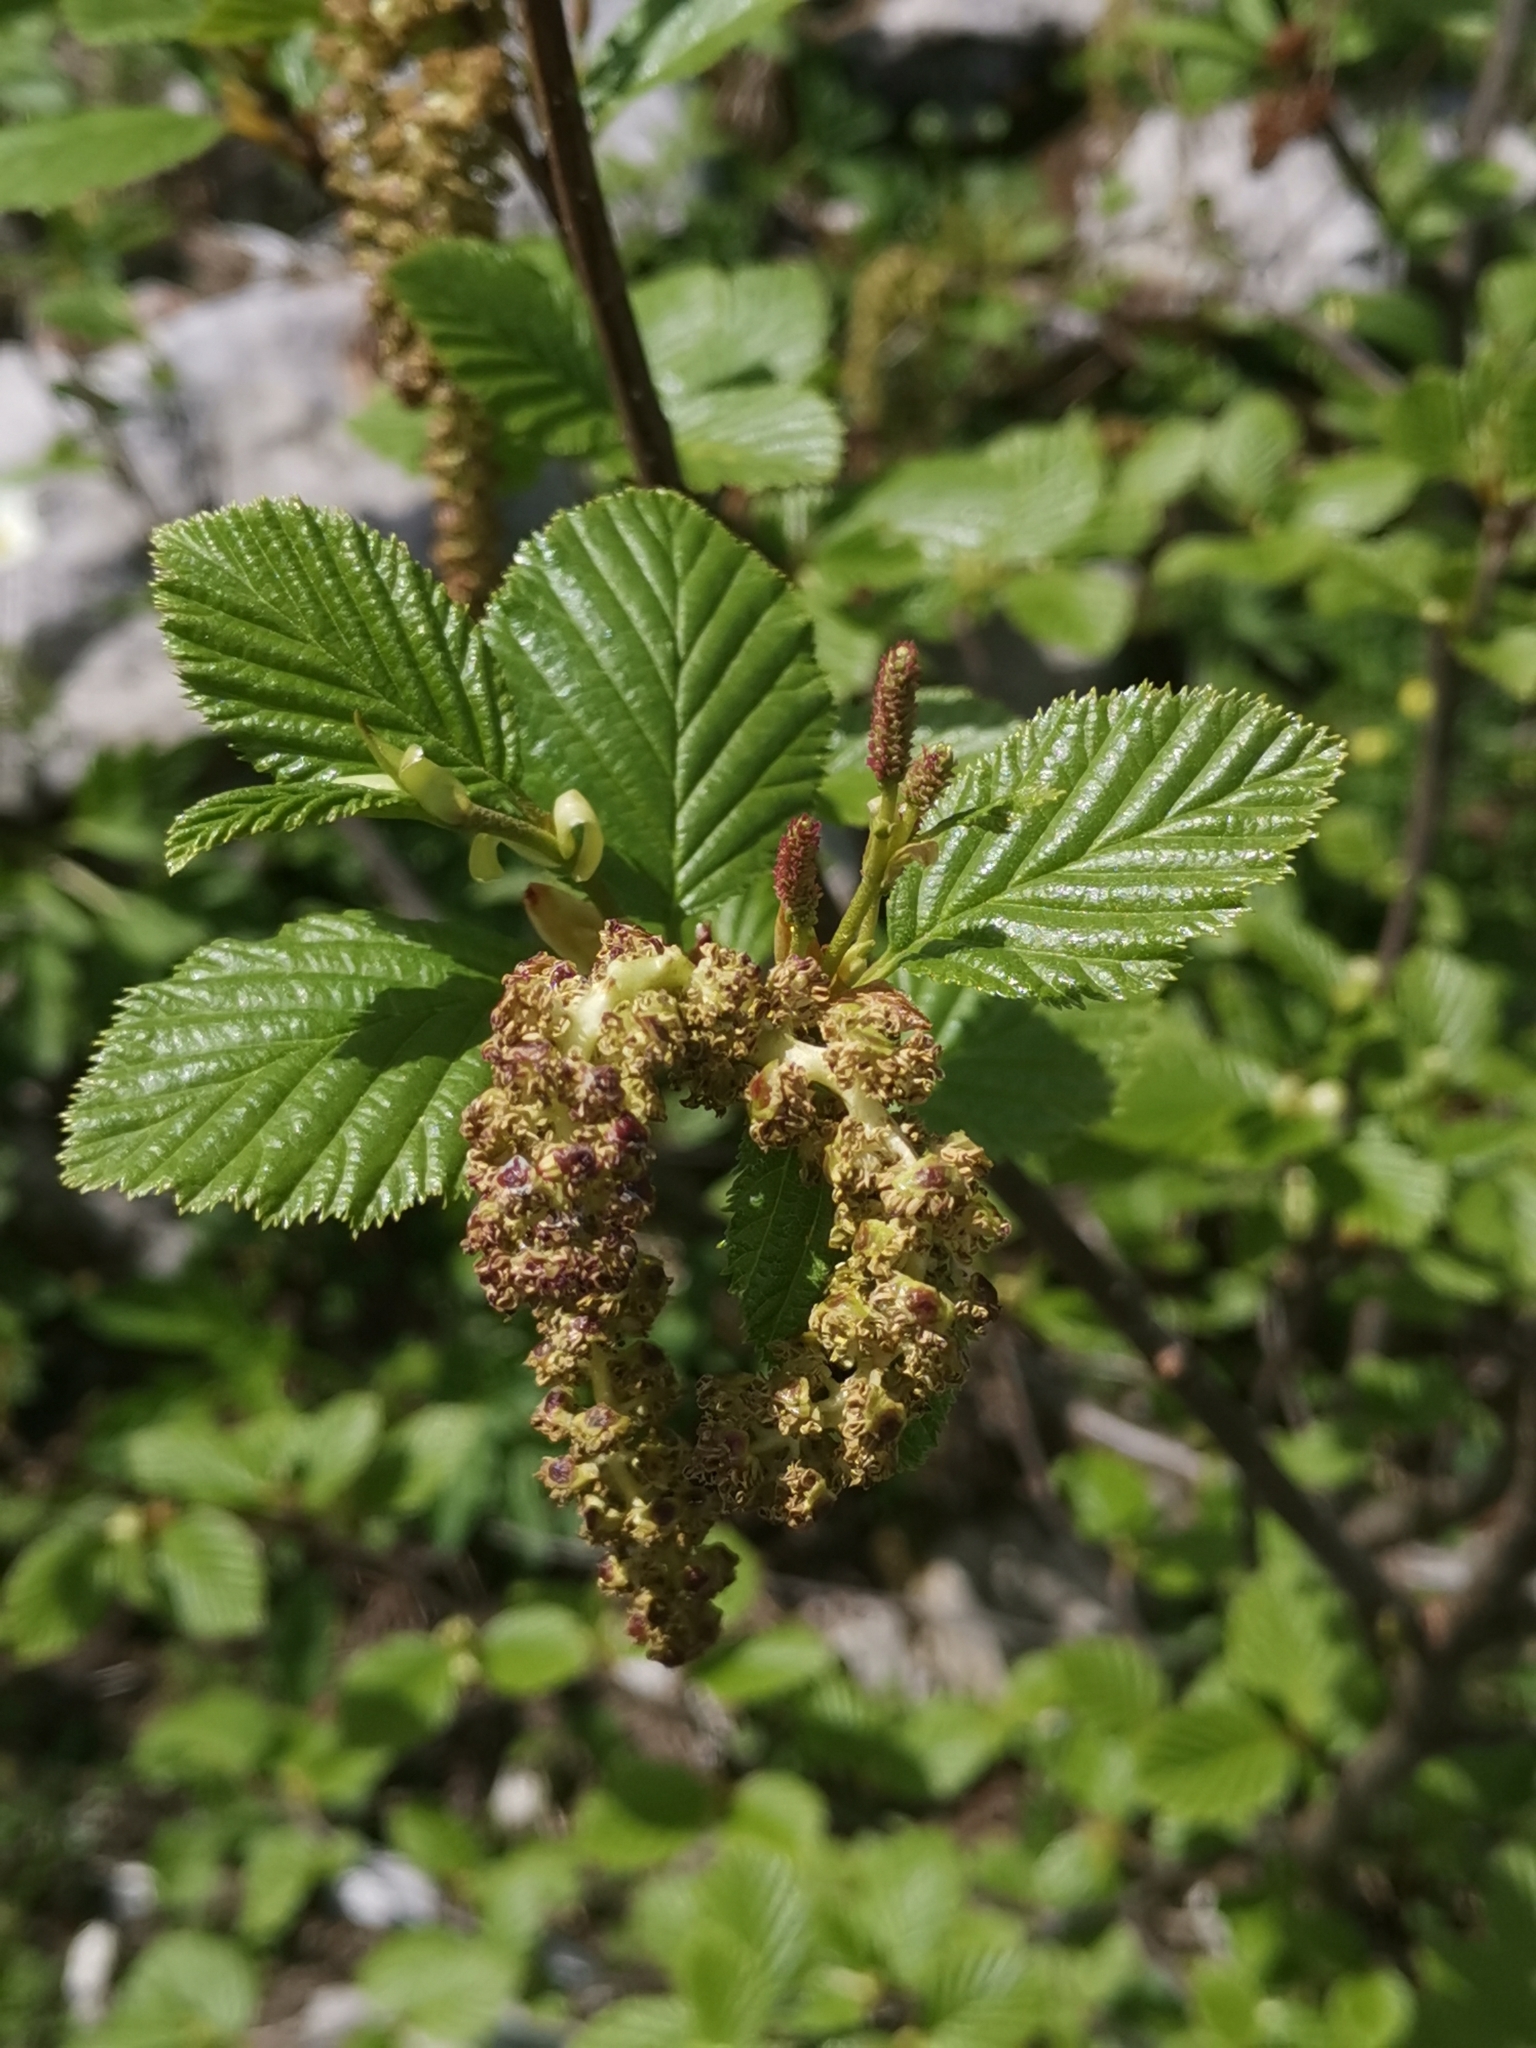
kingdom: Plantae
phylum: Tracheophyta
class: Magnoliopsida
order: Fagales
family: Betulaceae
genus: Alnus
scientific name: Alnus alnobetula
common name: Green alder
